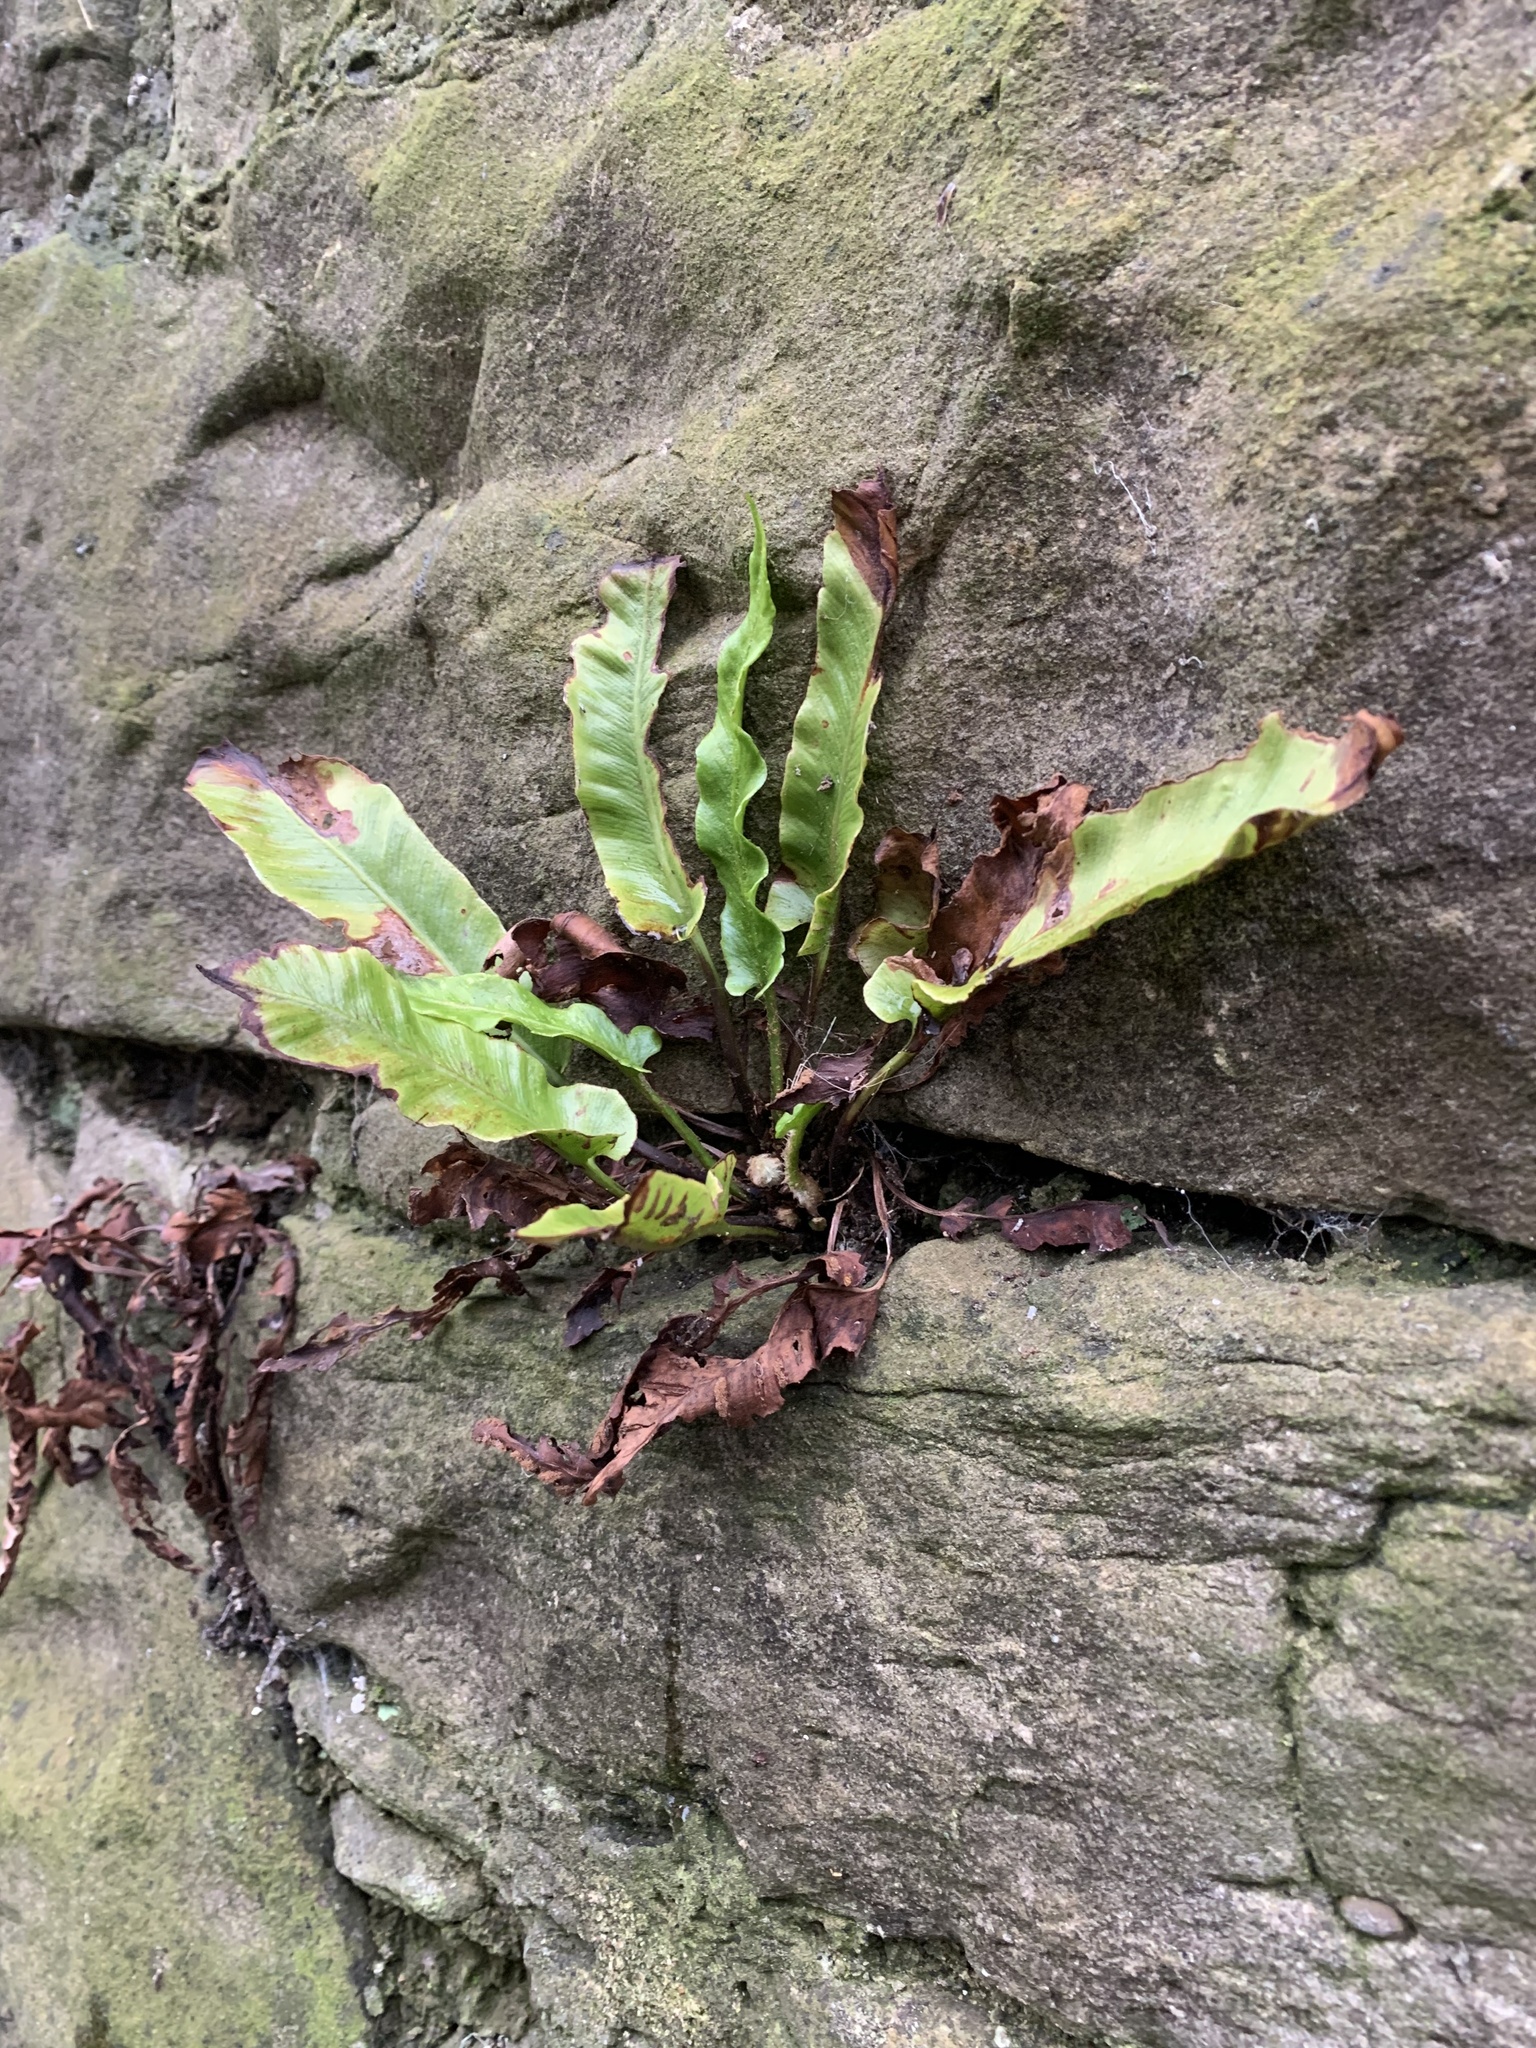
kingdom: Plantae
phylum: Tracheophyta
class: Polypodiopsida
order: Polypodiales
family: Aspleniaceae
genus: Asplenium
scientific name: Asplenium scolopendrium
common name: Hart's-tongue fern
